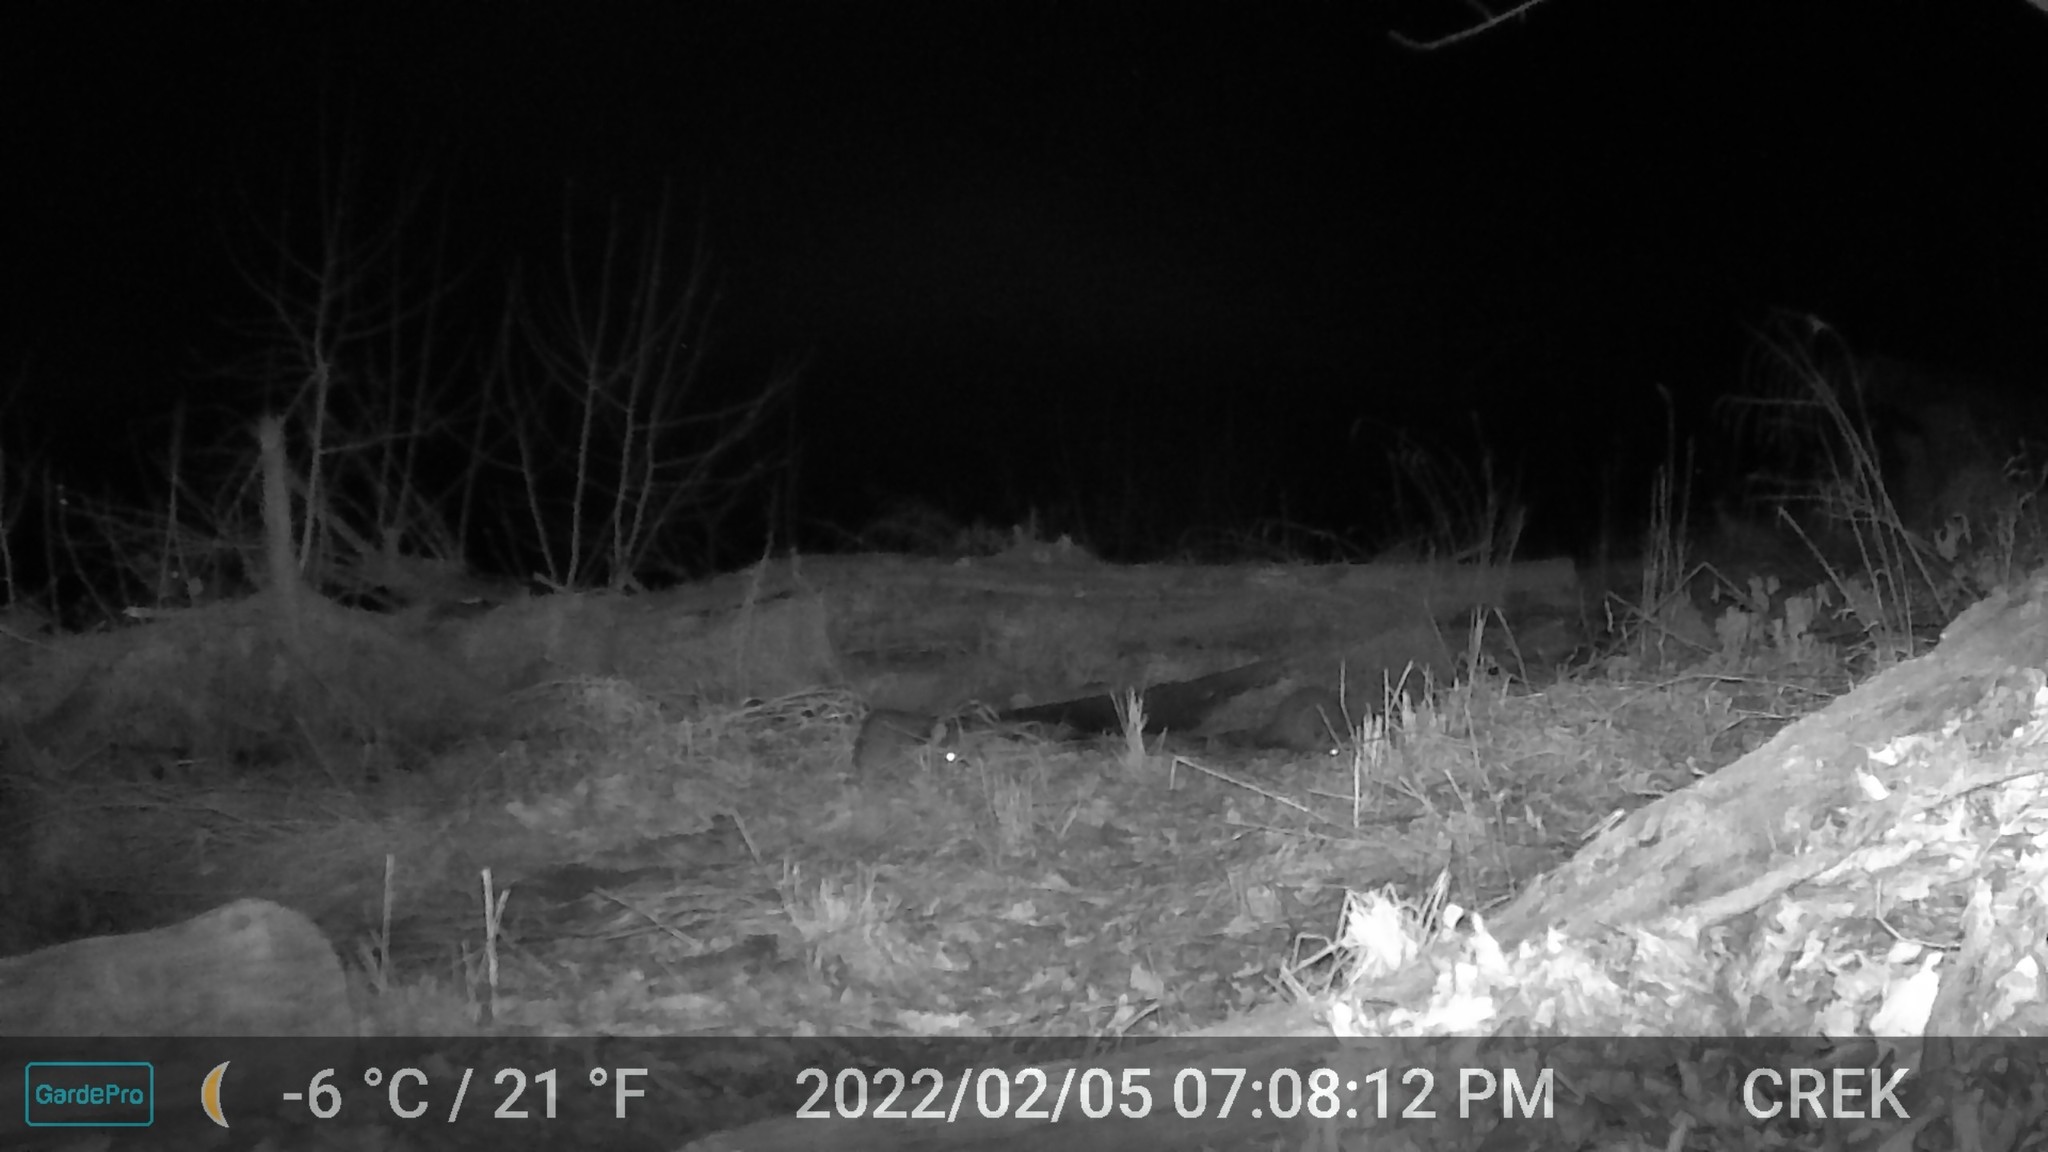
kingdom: Animalia
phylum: Chordata
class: Mammalia
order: Carnivora
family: Procyonidae
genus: Procyon
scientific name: Procyon lotor
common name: Raccoon
